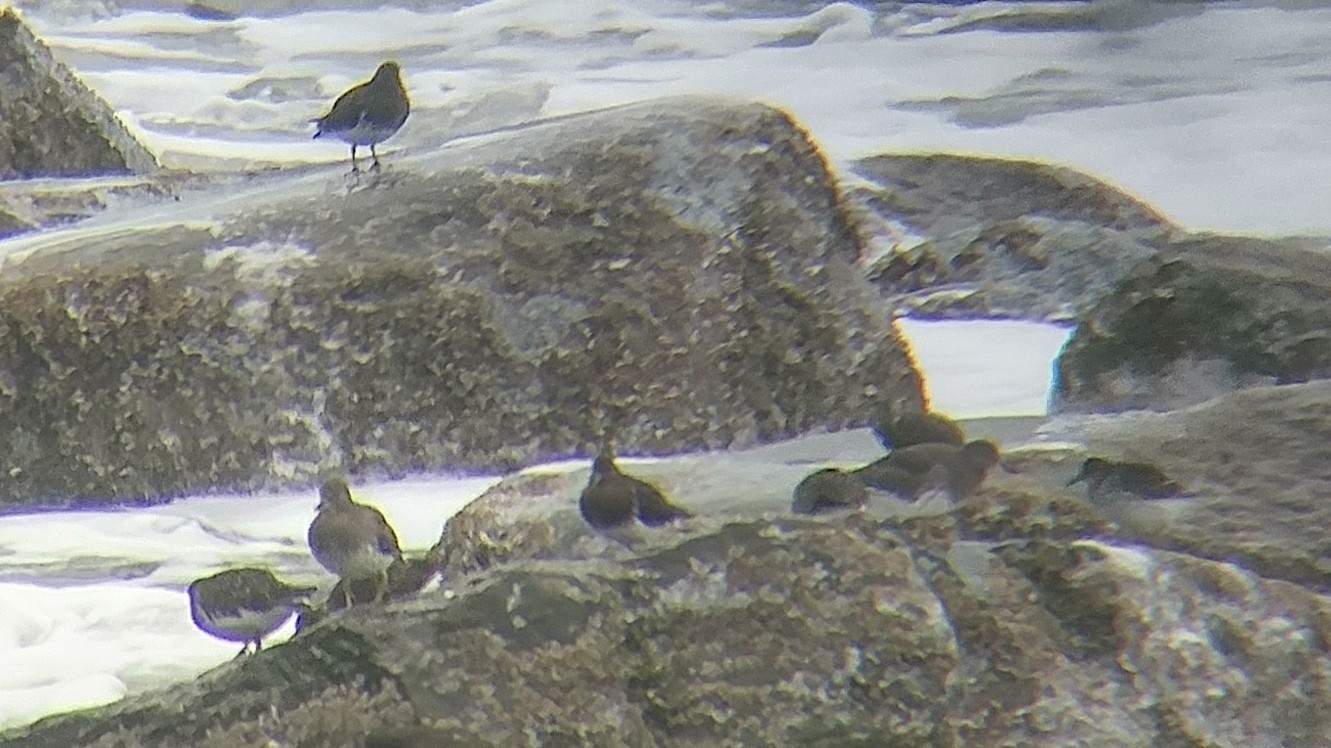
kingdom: Animalia
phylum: Chordata
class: Aves
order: Charadriiformes
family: Scolopacidae
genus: Arenaria
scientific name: Arenaria melanocephala
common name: Black turnstone
